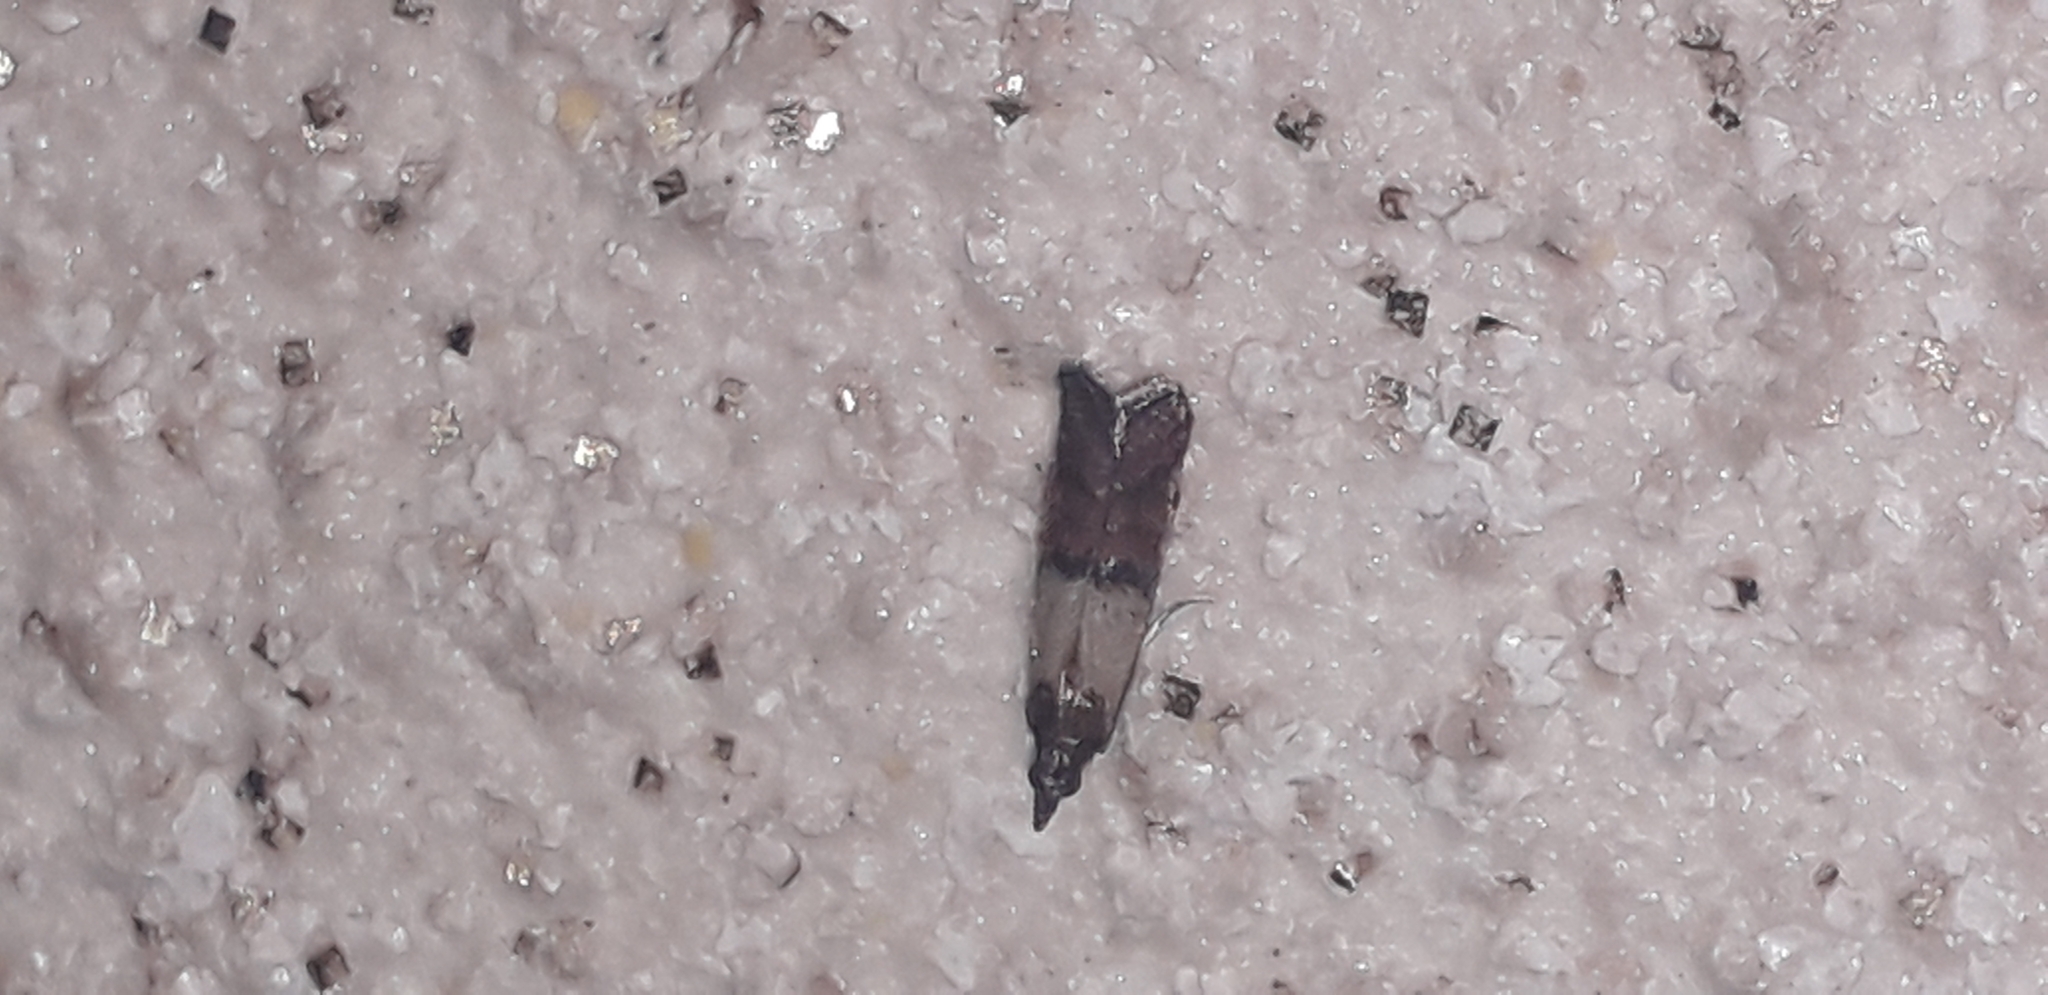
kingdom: Animalia
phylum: Arthropoda
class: Insecta
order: Lepidoptera
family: Pyralidae
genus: Plodia
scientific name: Plodia interpunctella
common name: Indian meal moth
